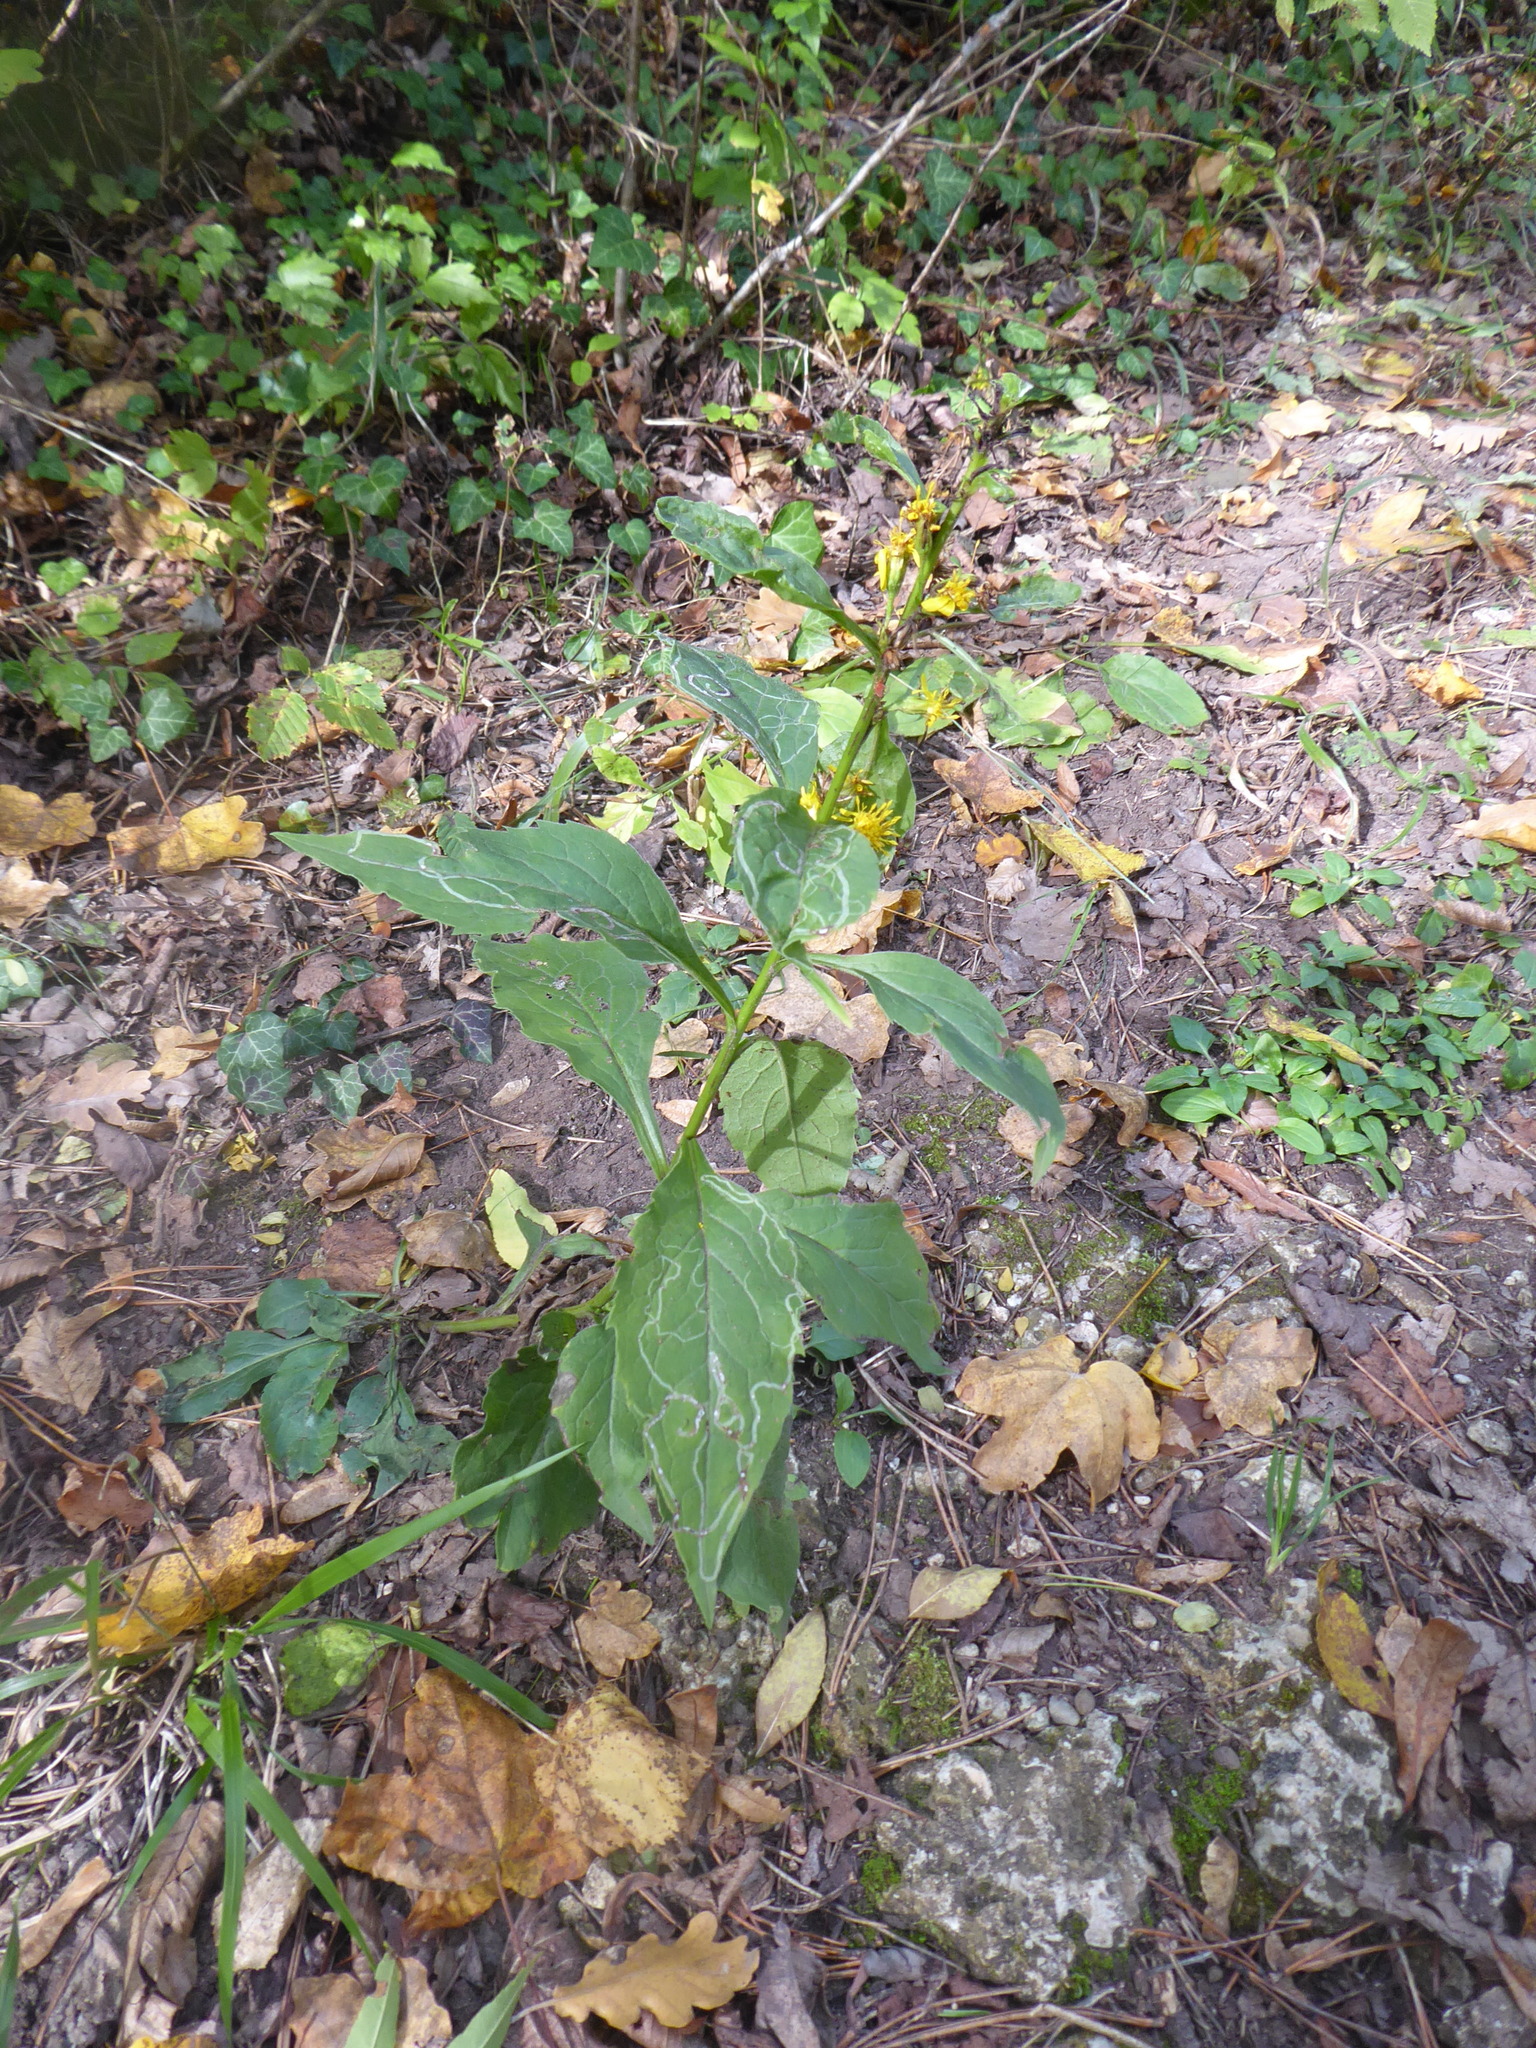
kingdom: Plantae
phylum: Tracheophyta
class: Magnoliopsida
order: Asterales
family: Asteraceae
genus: Solidago
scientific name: Solidago virgaurea
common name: Goldenrod
